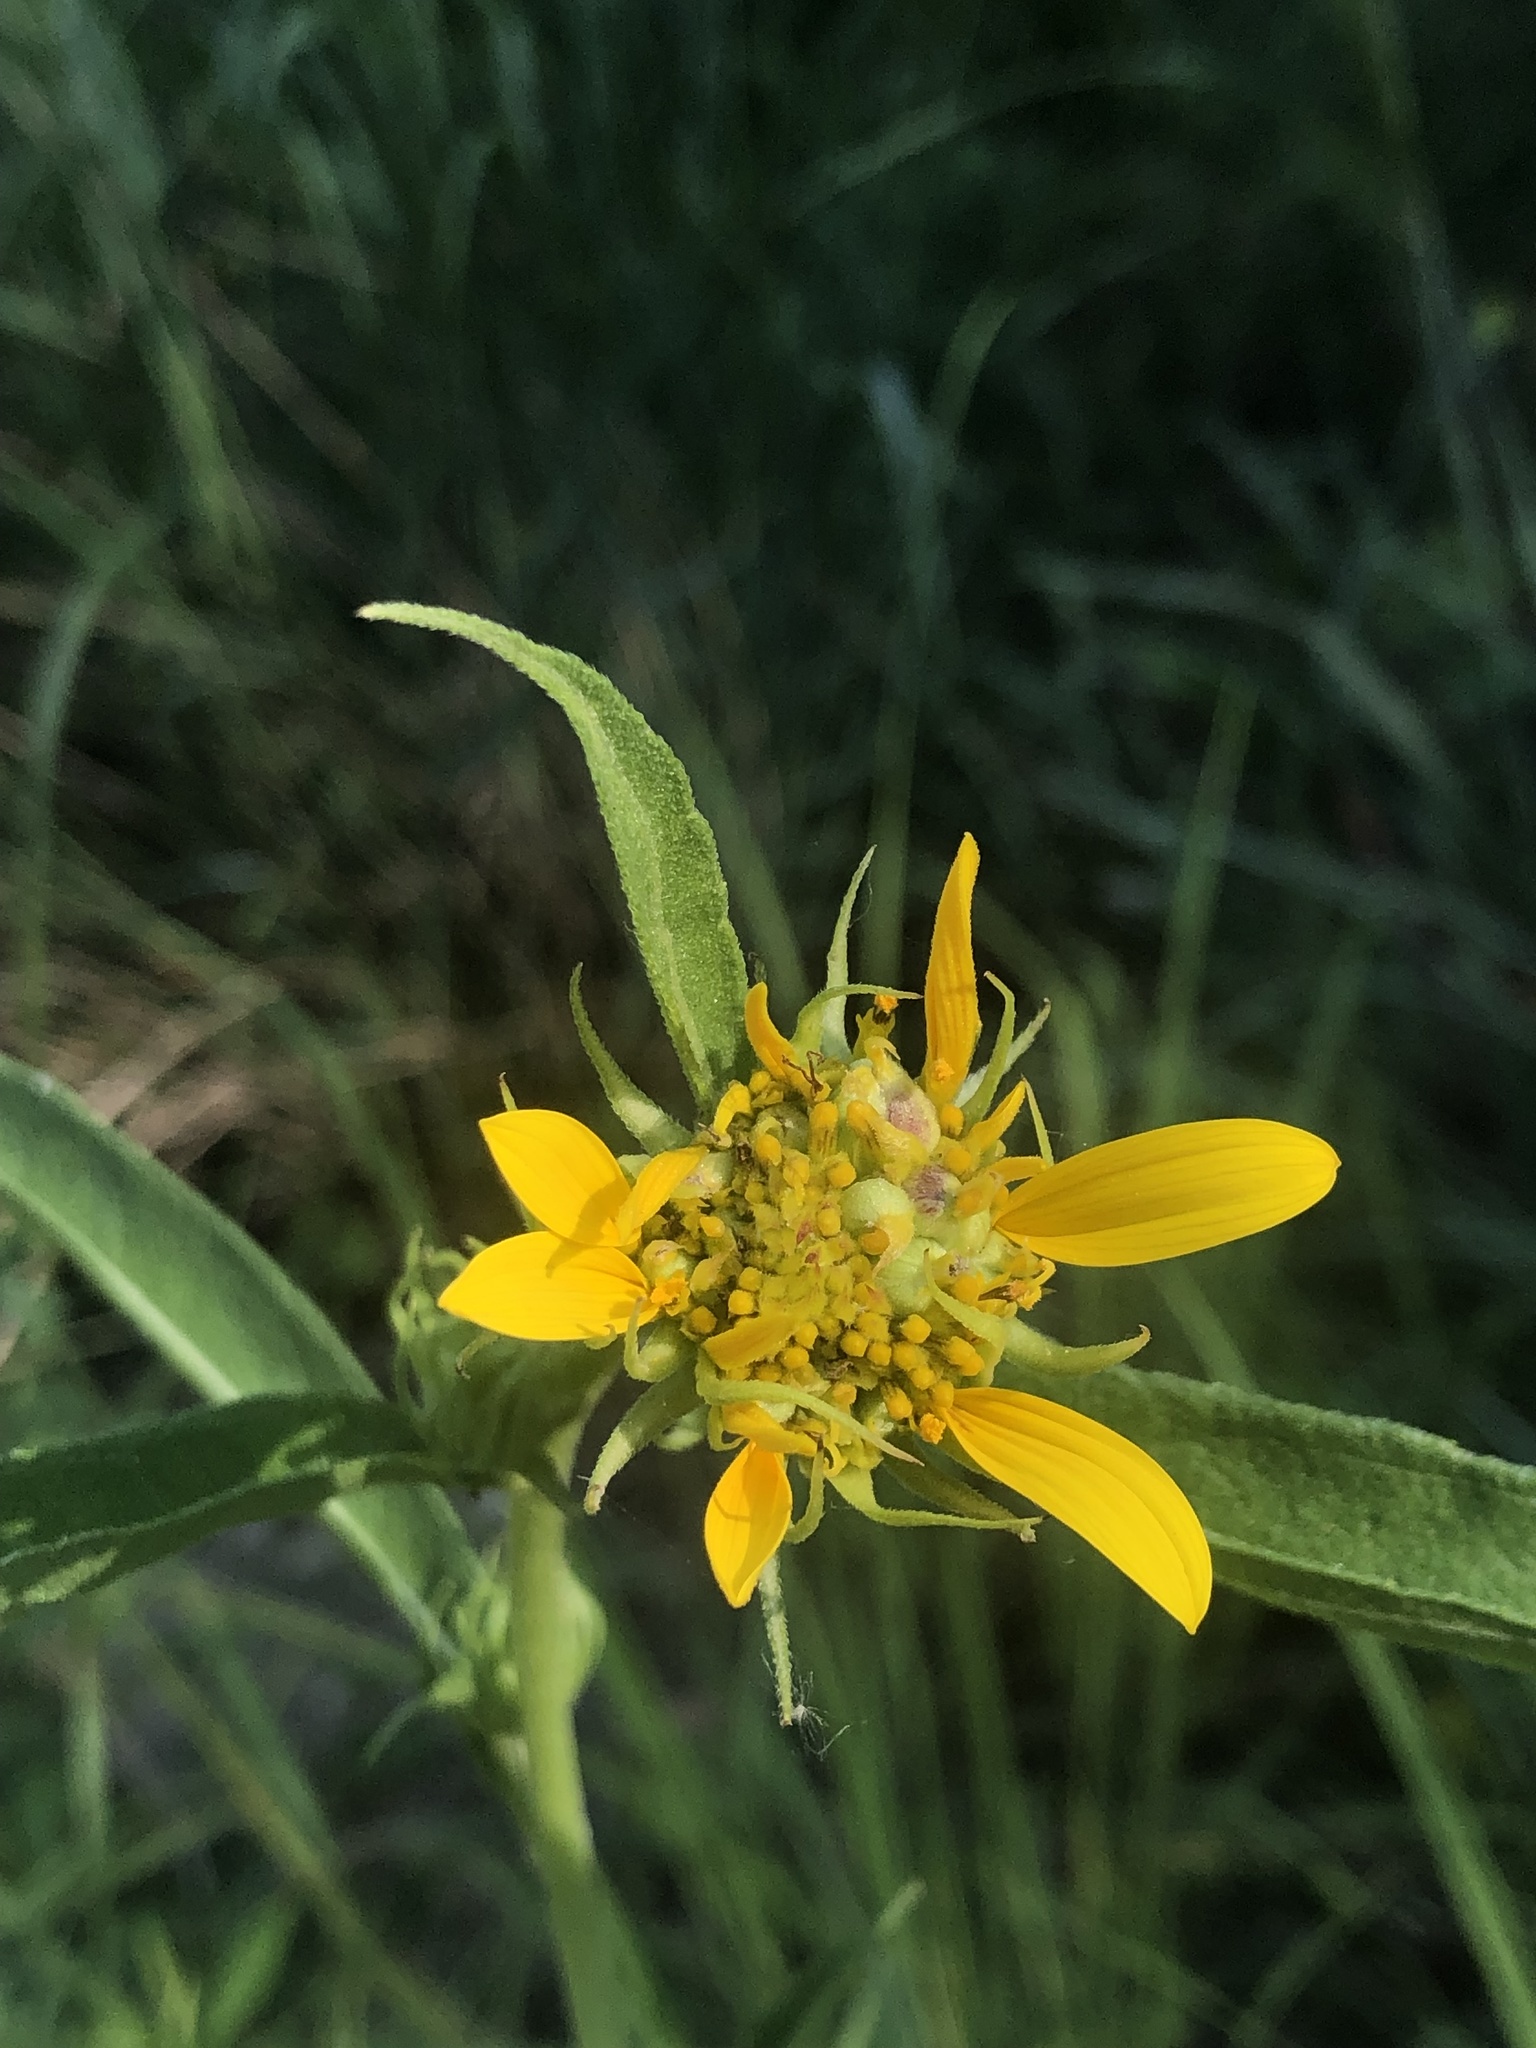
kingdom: Plantae
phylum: Tracheophyta
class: Magnoliopsida
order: Asterales
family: Asteraceae
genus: Helianthus
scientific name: Helianthus maximiliani
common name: Maximilian's sunflower
